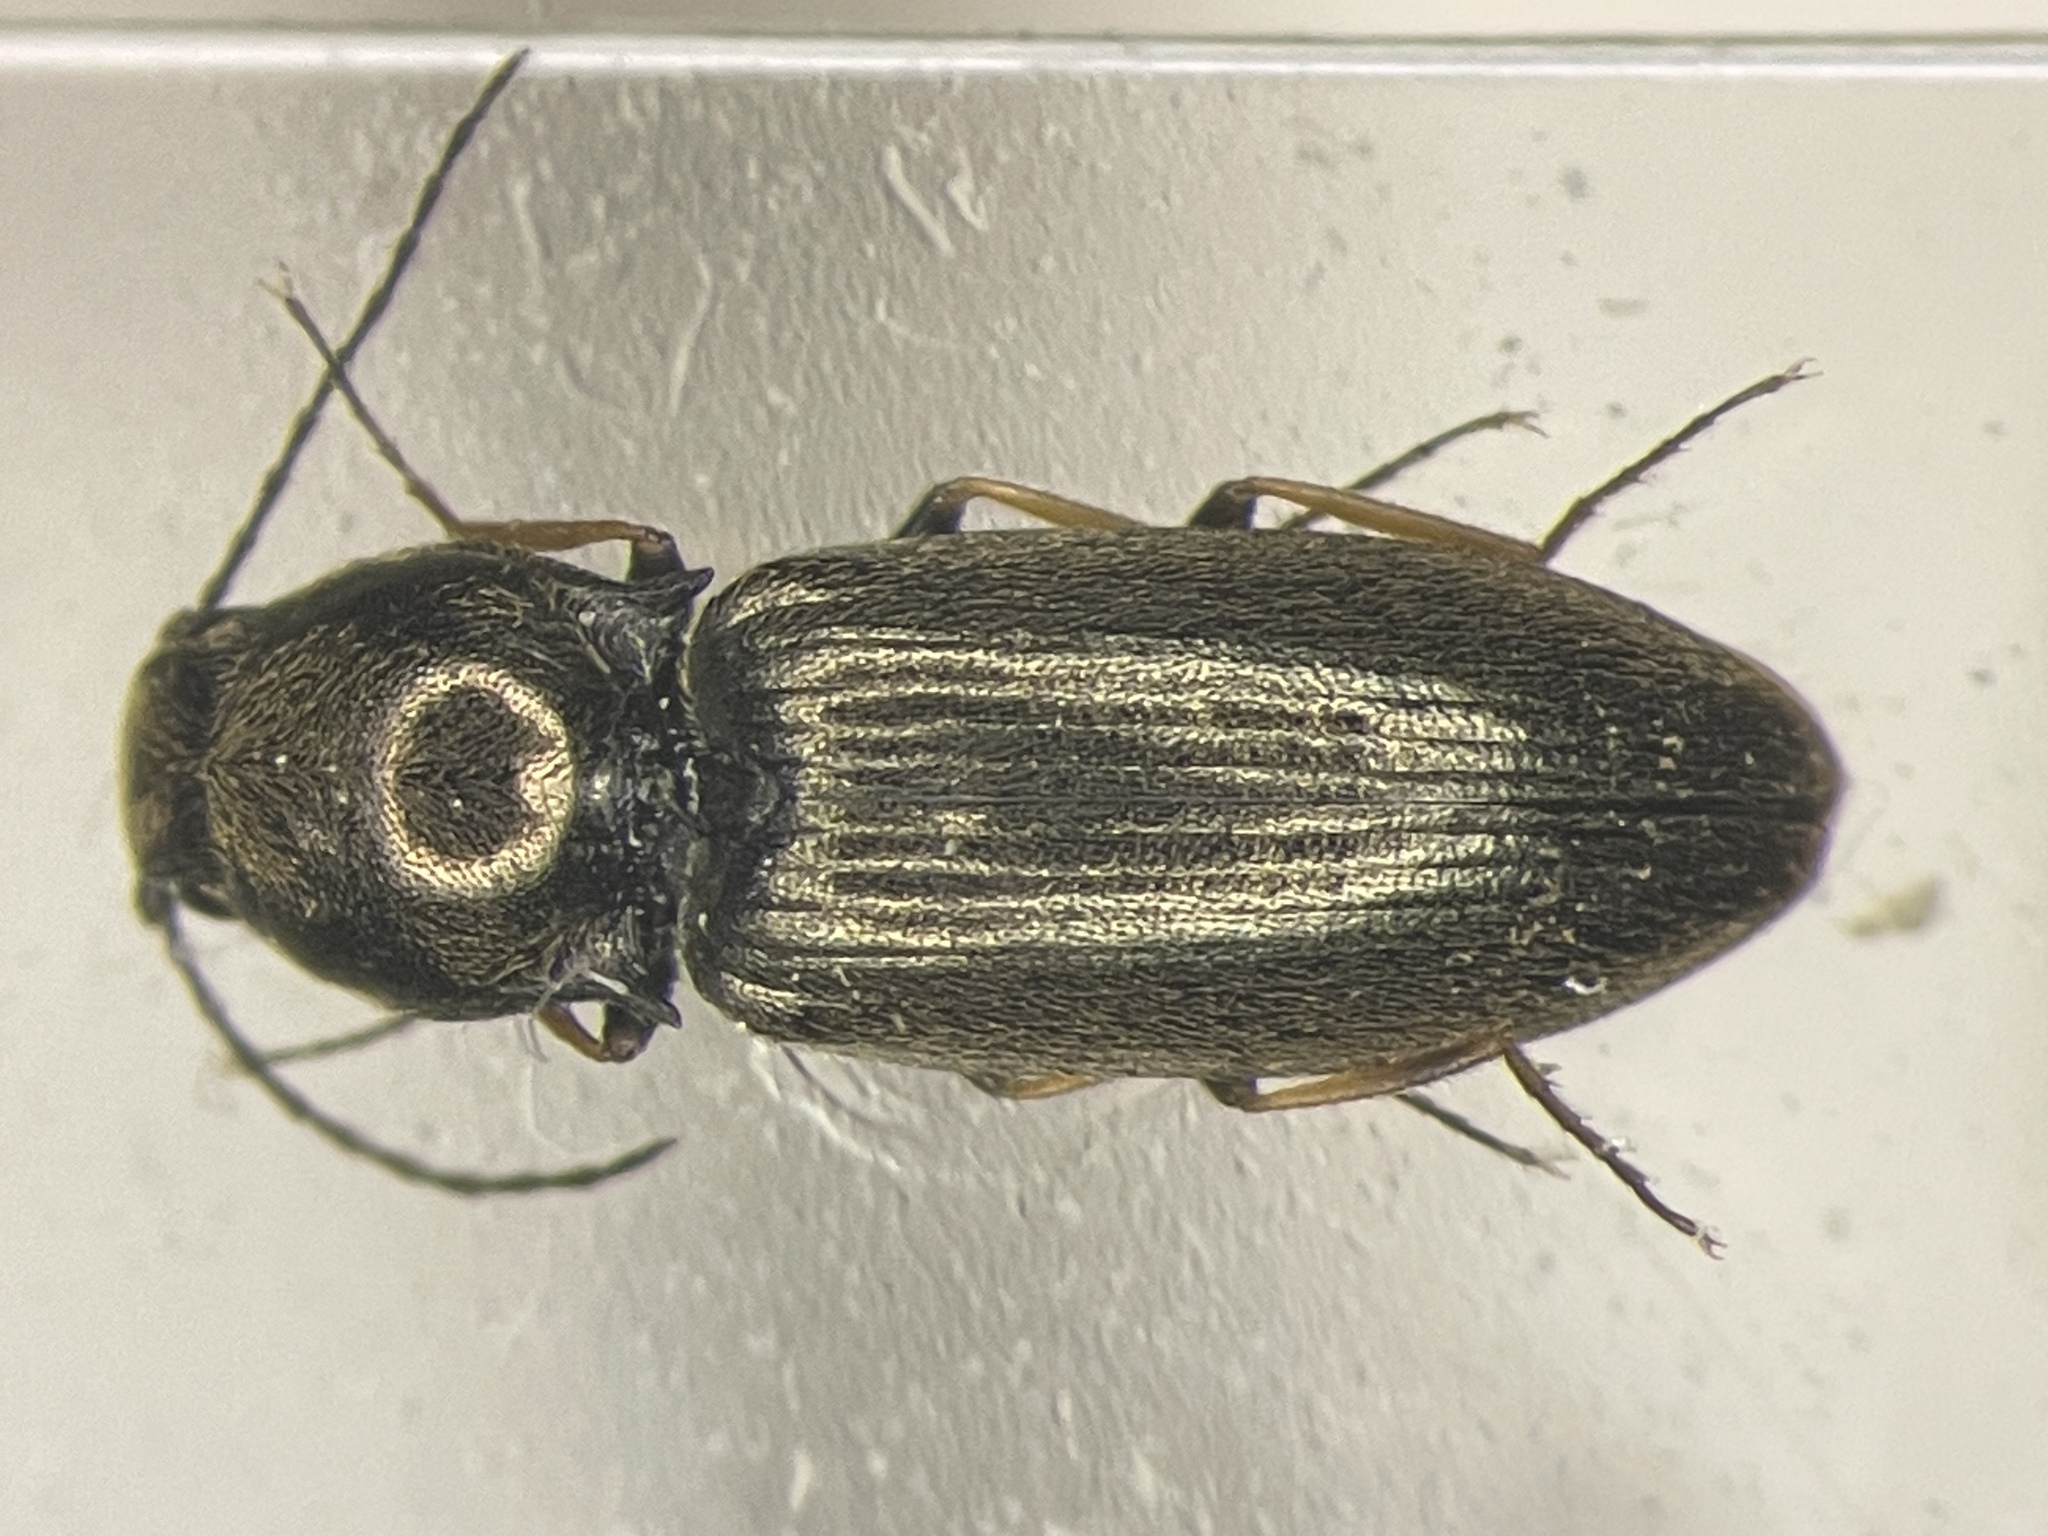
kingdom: Animalia
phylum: Arthropoda
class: Insecta
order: Coleoptera
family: Elateridae
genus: Oedostethus
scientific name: Oedostethus femoralis
